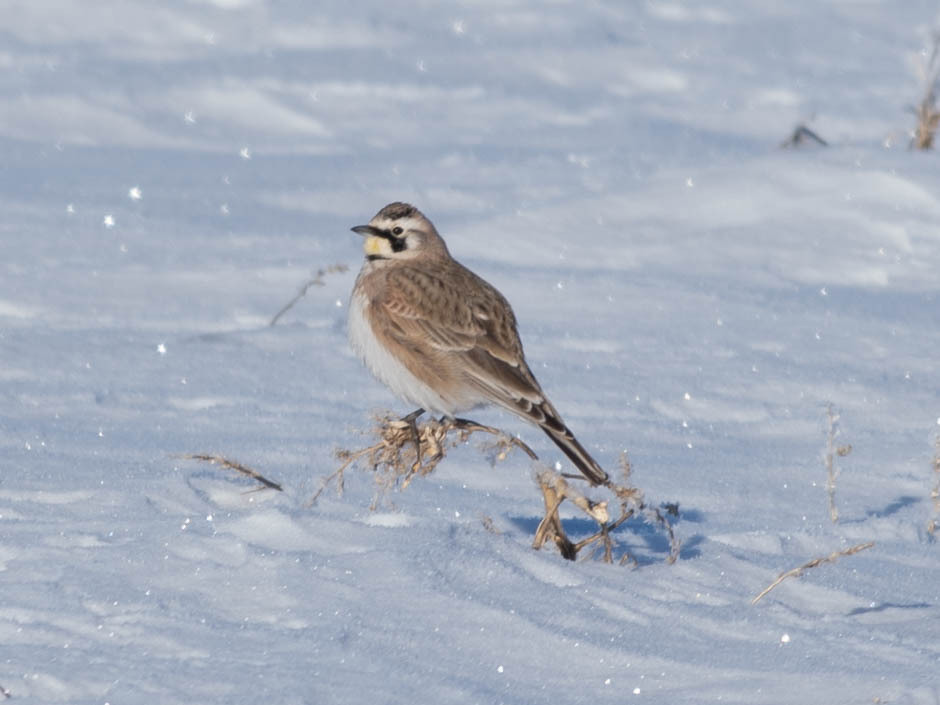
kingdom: Animalia
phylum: Chordata
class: Aves
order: Passeriformes
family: Alaudidae
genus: Eremophila
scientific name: Eremophila alpestris
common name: Horned lark
